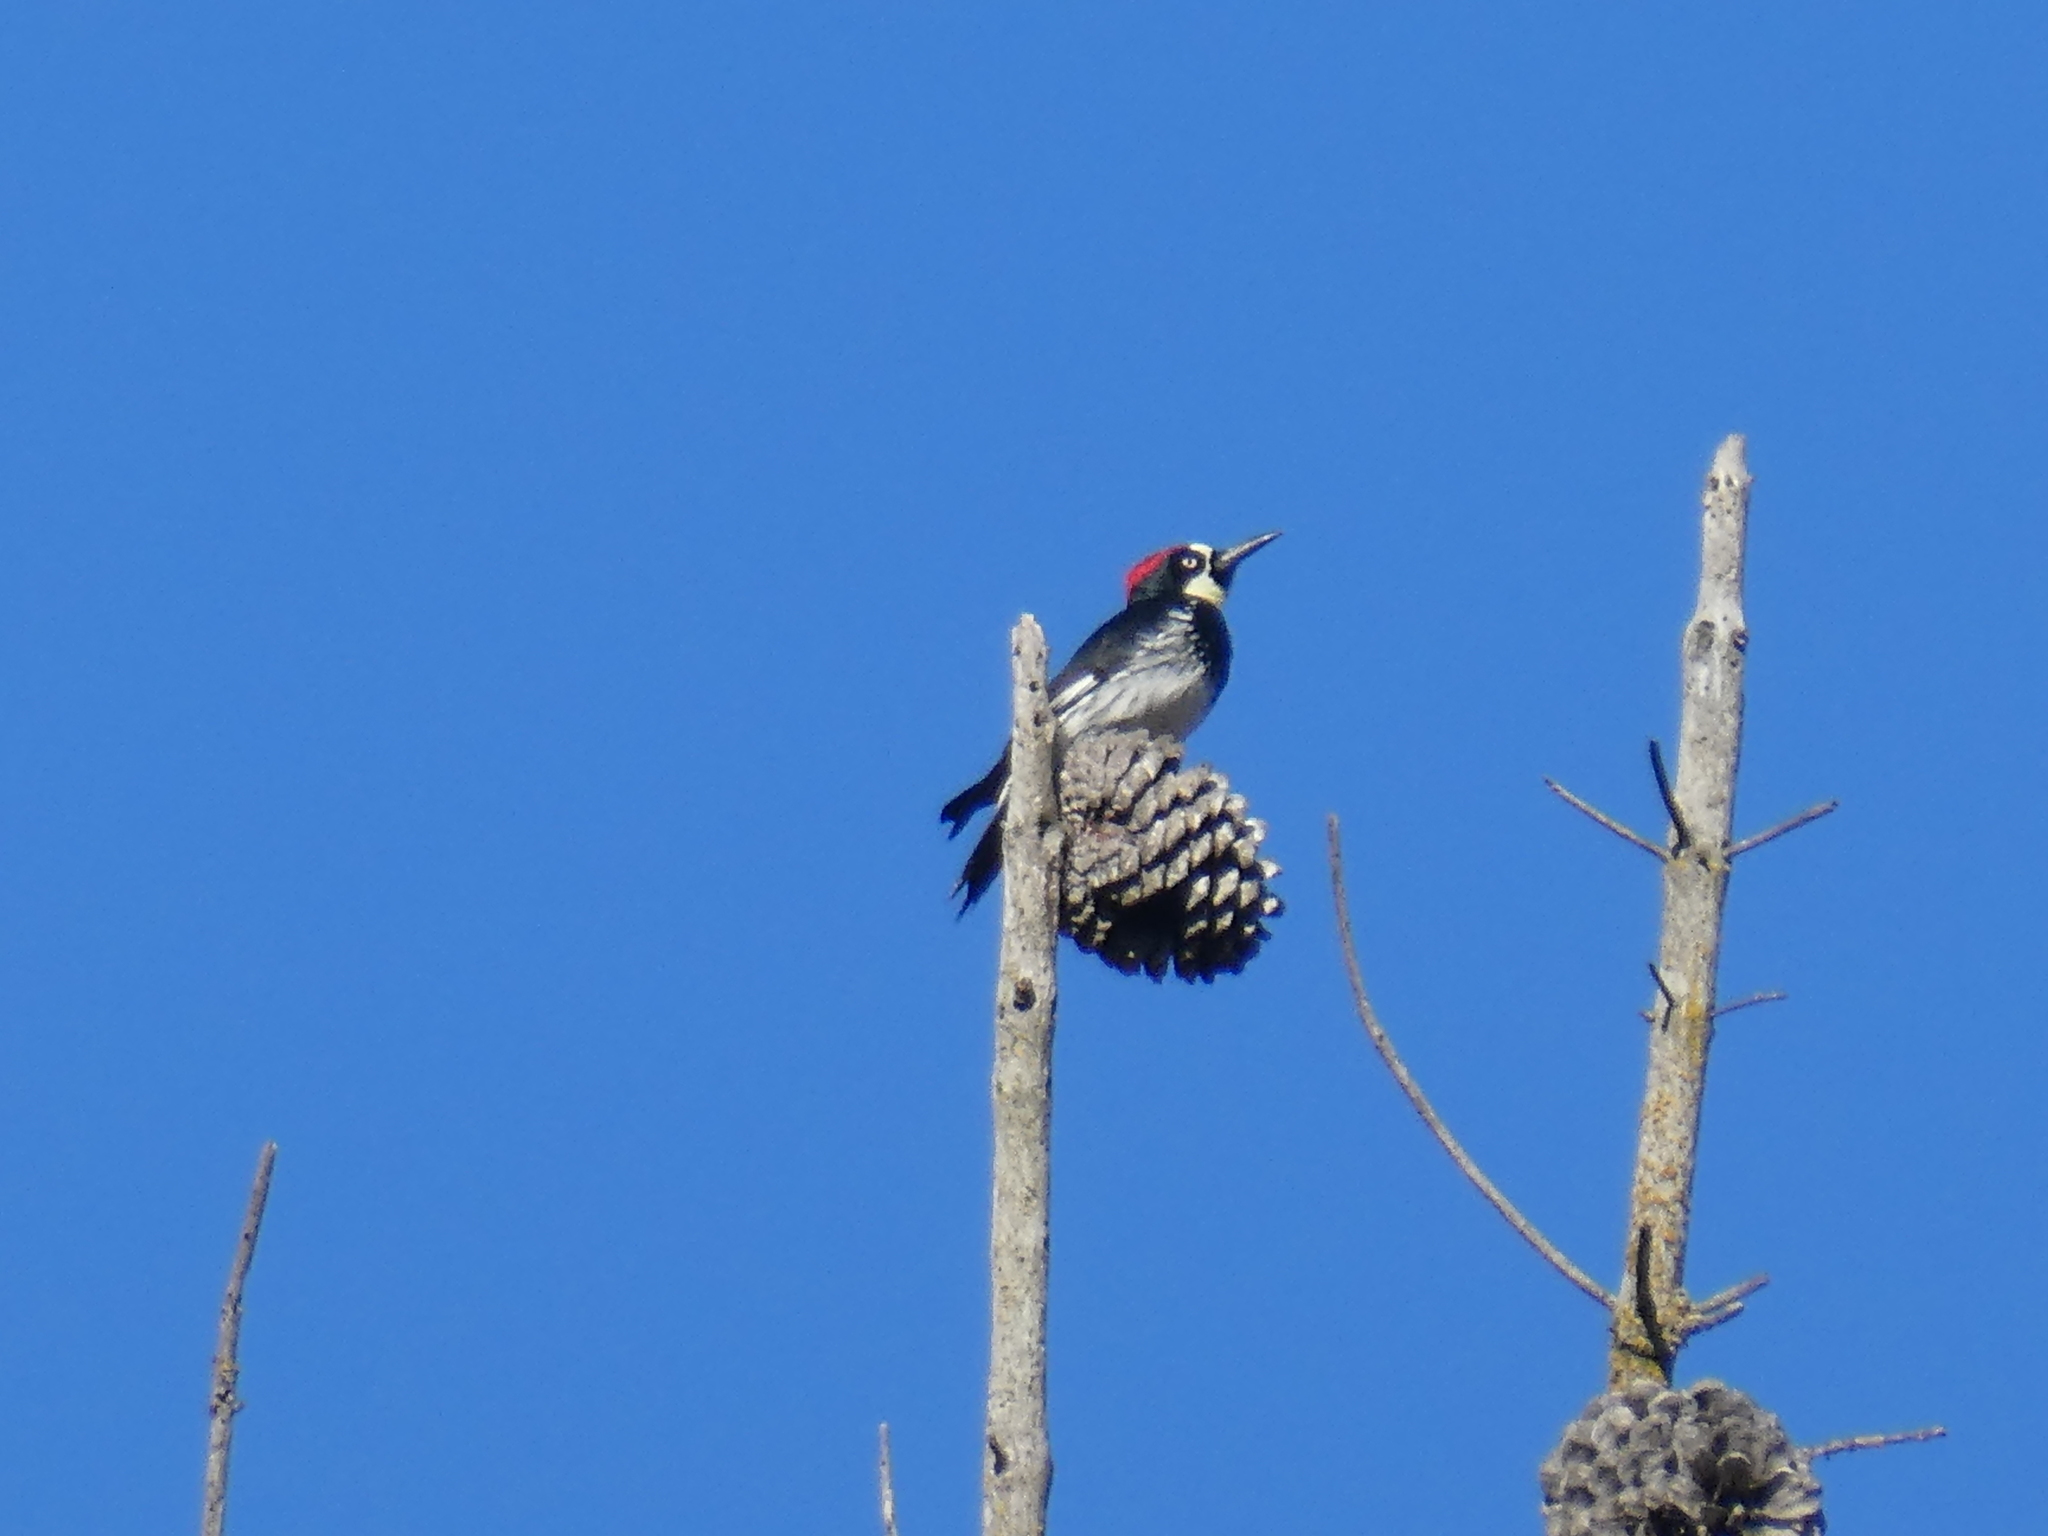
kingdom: Animalia
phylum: Chordata
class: Aves
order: Piciformes
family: Picidae
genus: Melanerpes
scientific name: Melanerpes formicivorus
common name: Acorn woodpecker
